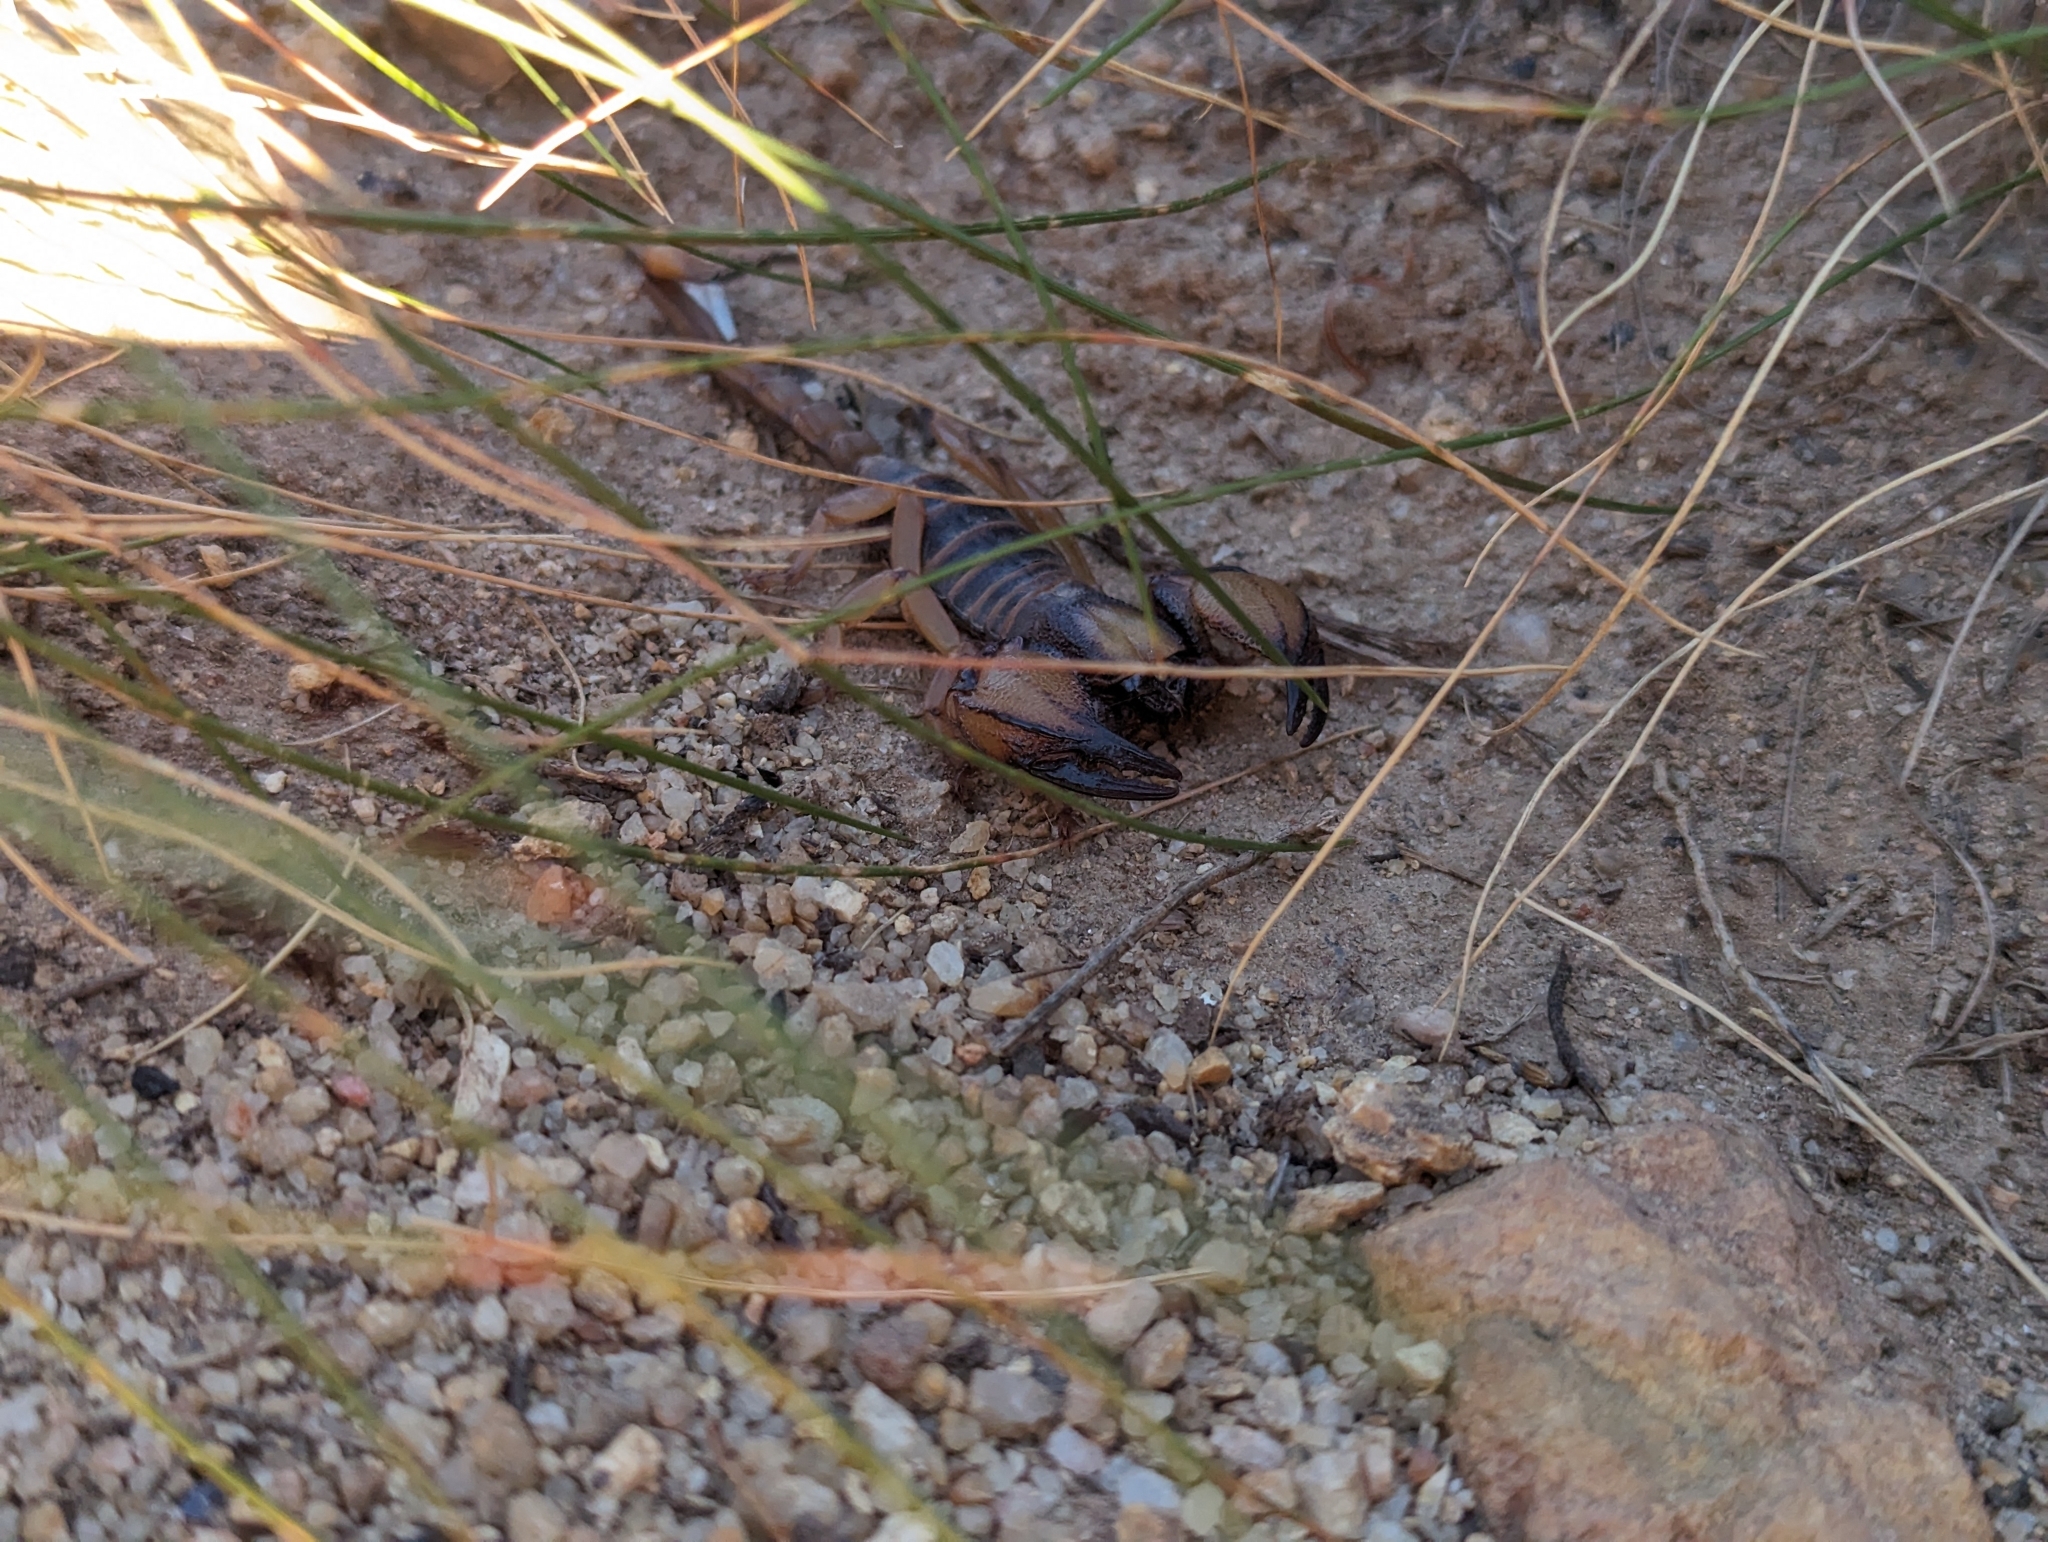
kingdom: Animalia
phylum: Arthropoda
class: Arachnida
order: Scorpiones
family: Scorpionidae
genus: Opistophthalmus
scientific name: Opistophthalmus capensis
